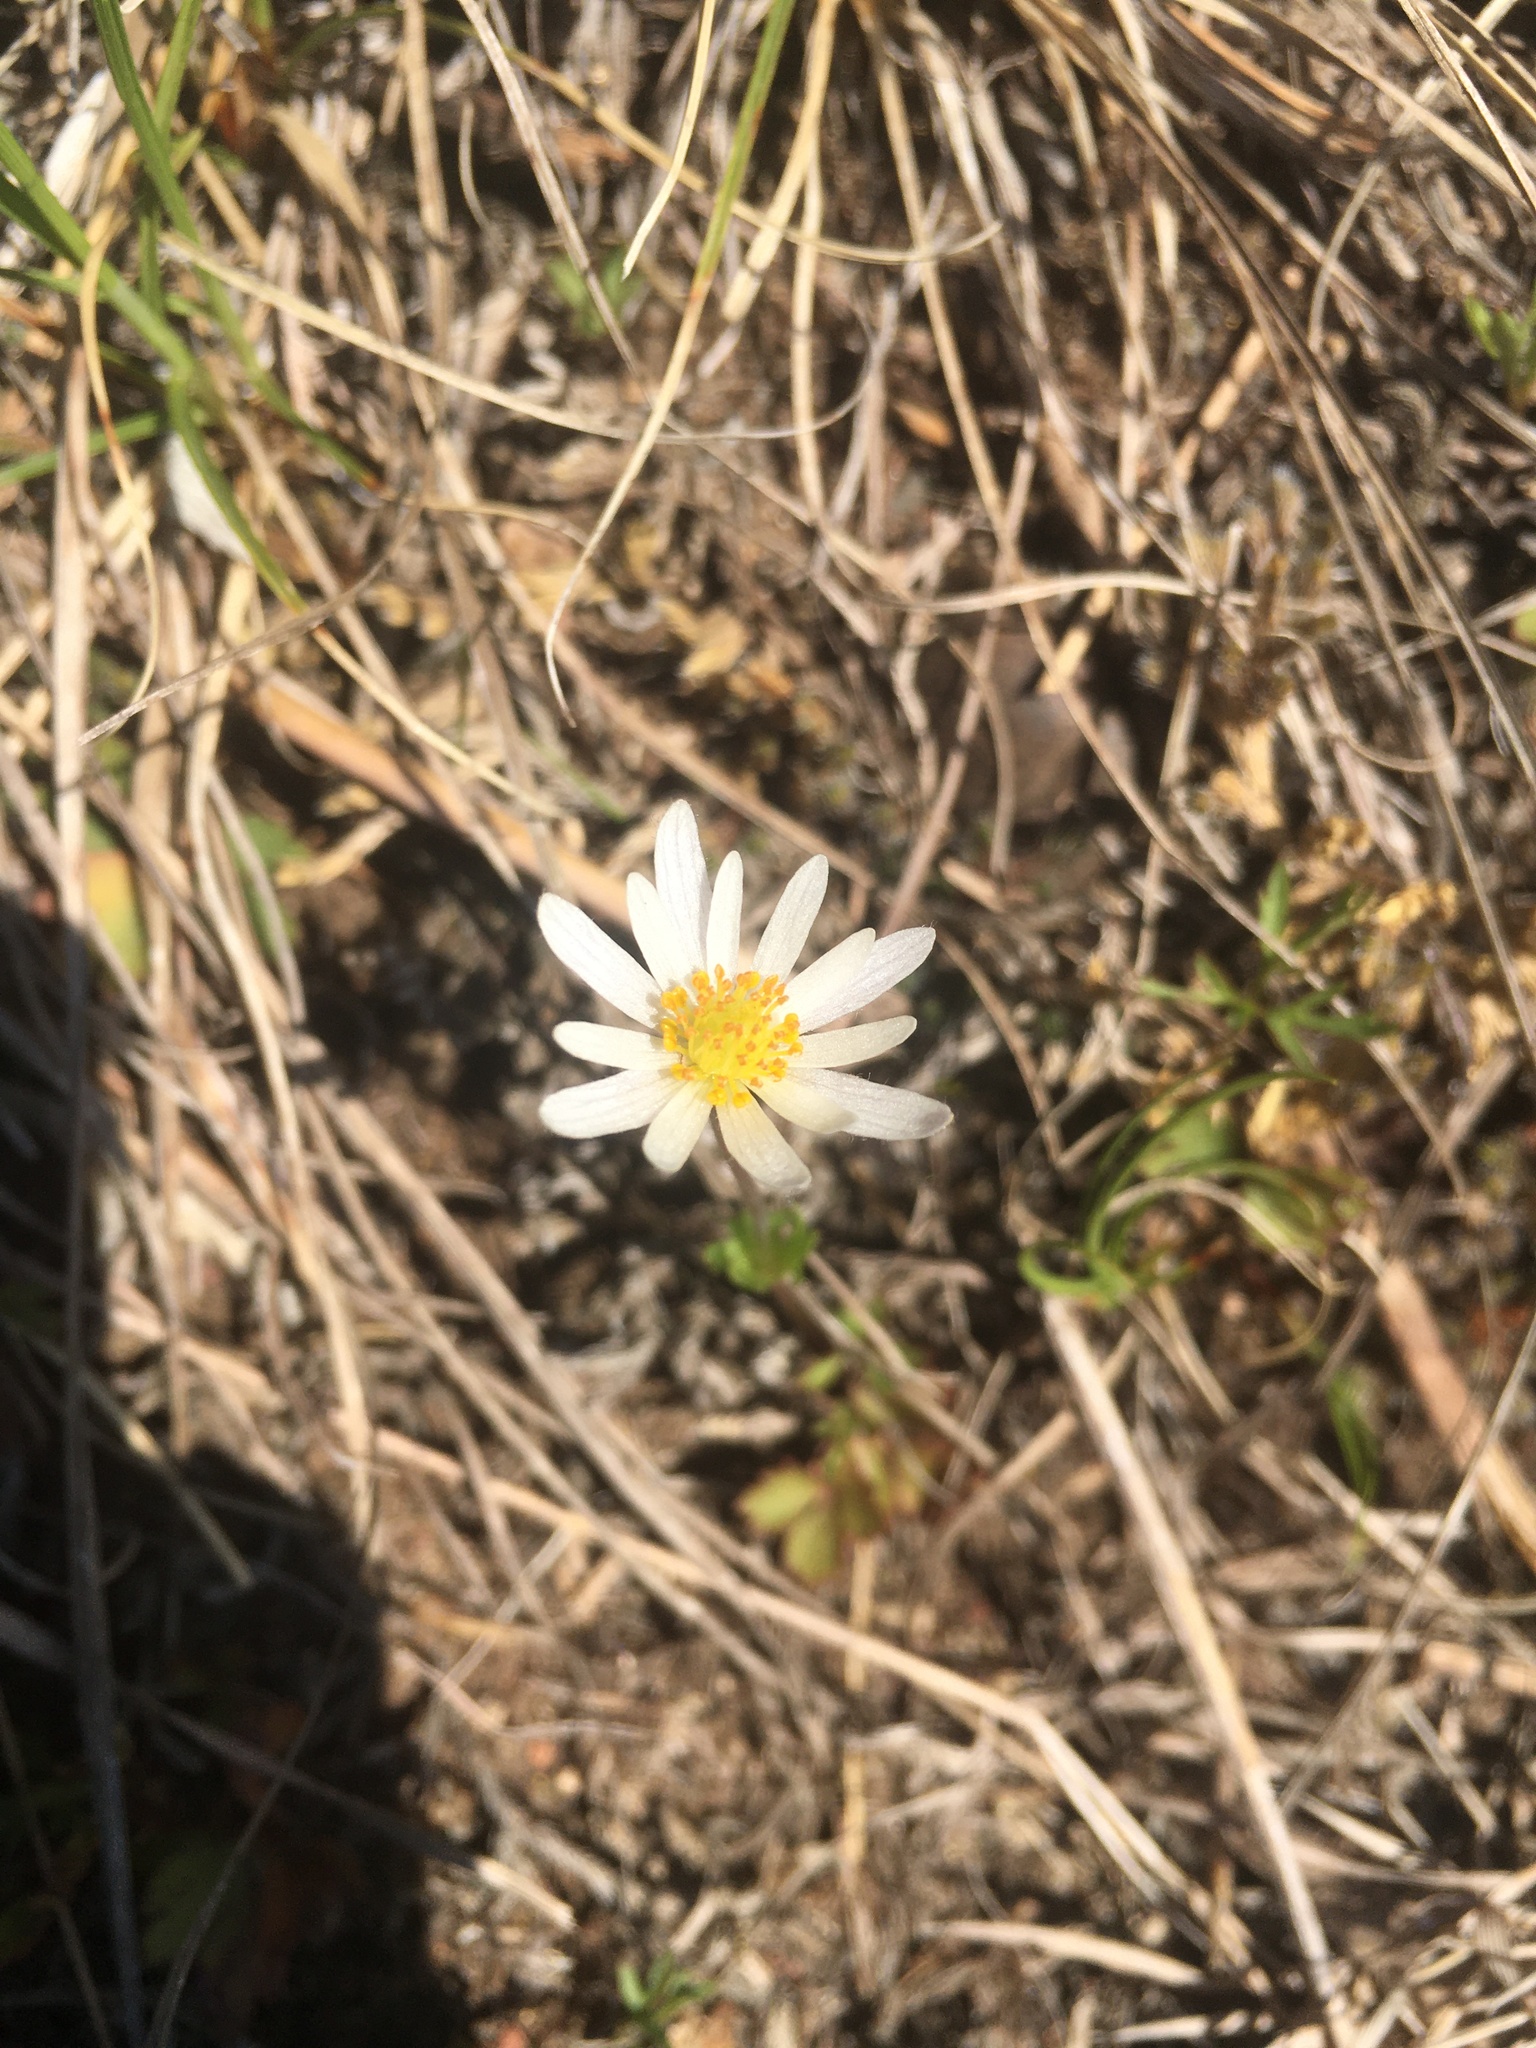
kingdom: Plantae
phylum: Tracheophyta
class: Magnoliopsida
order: Ranunculales
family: Ranunculaceae
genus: Anemone
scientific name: Anemone caroliniana
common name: Carolina anemone
